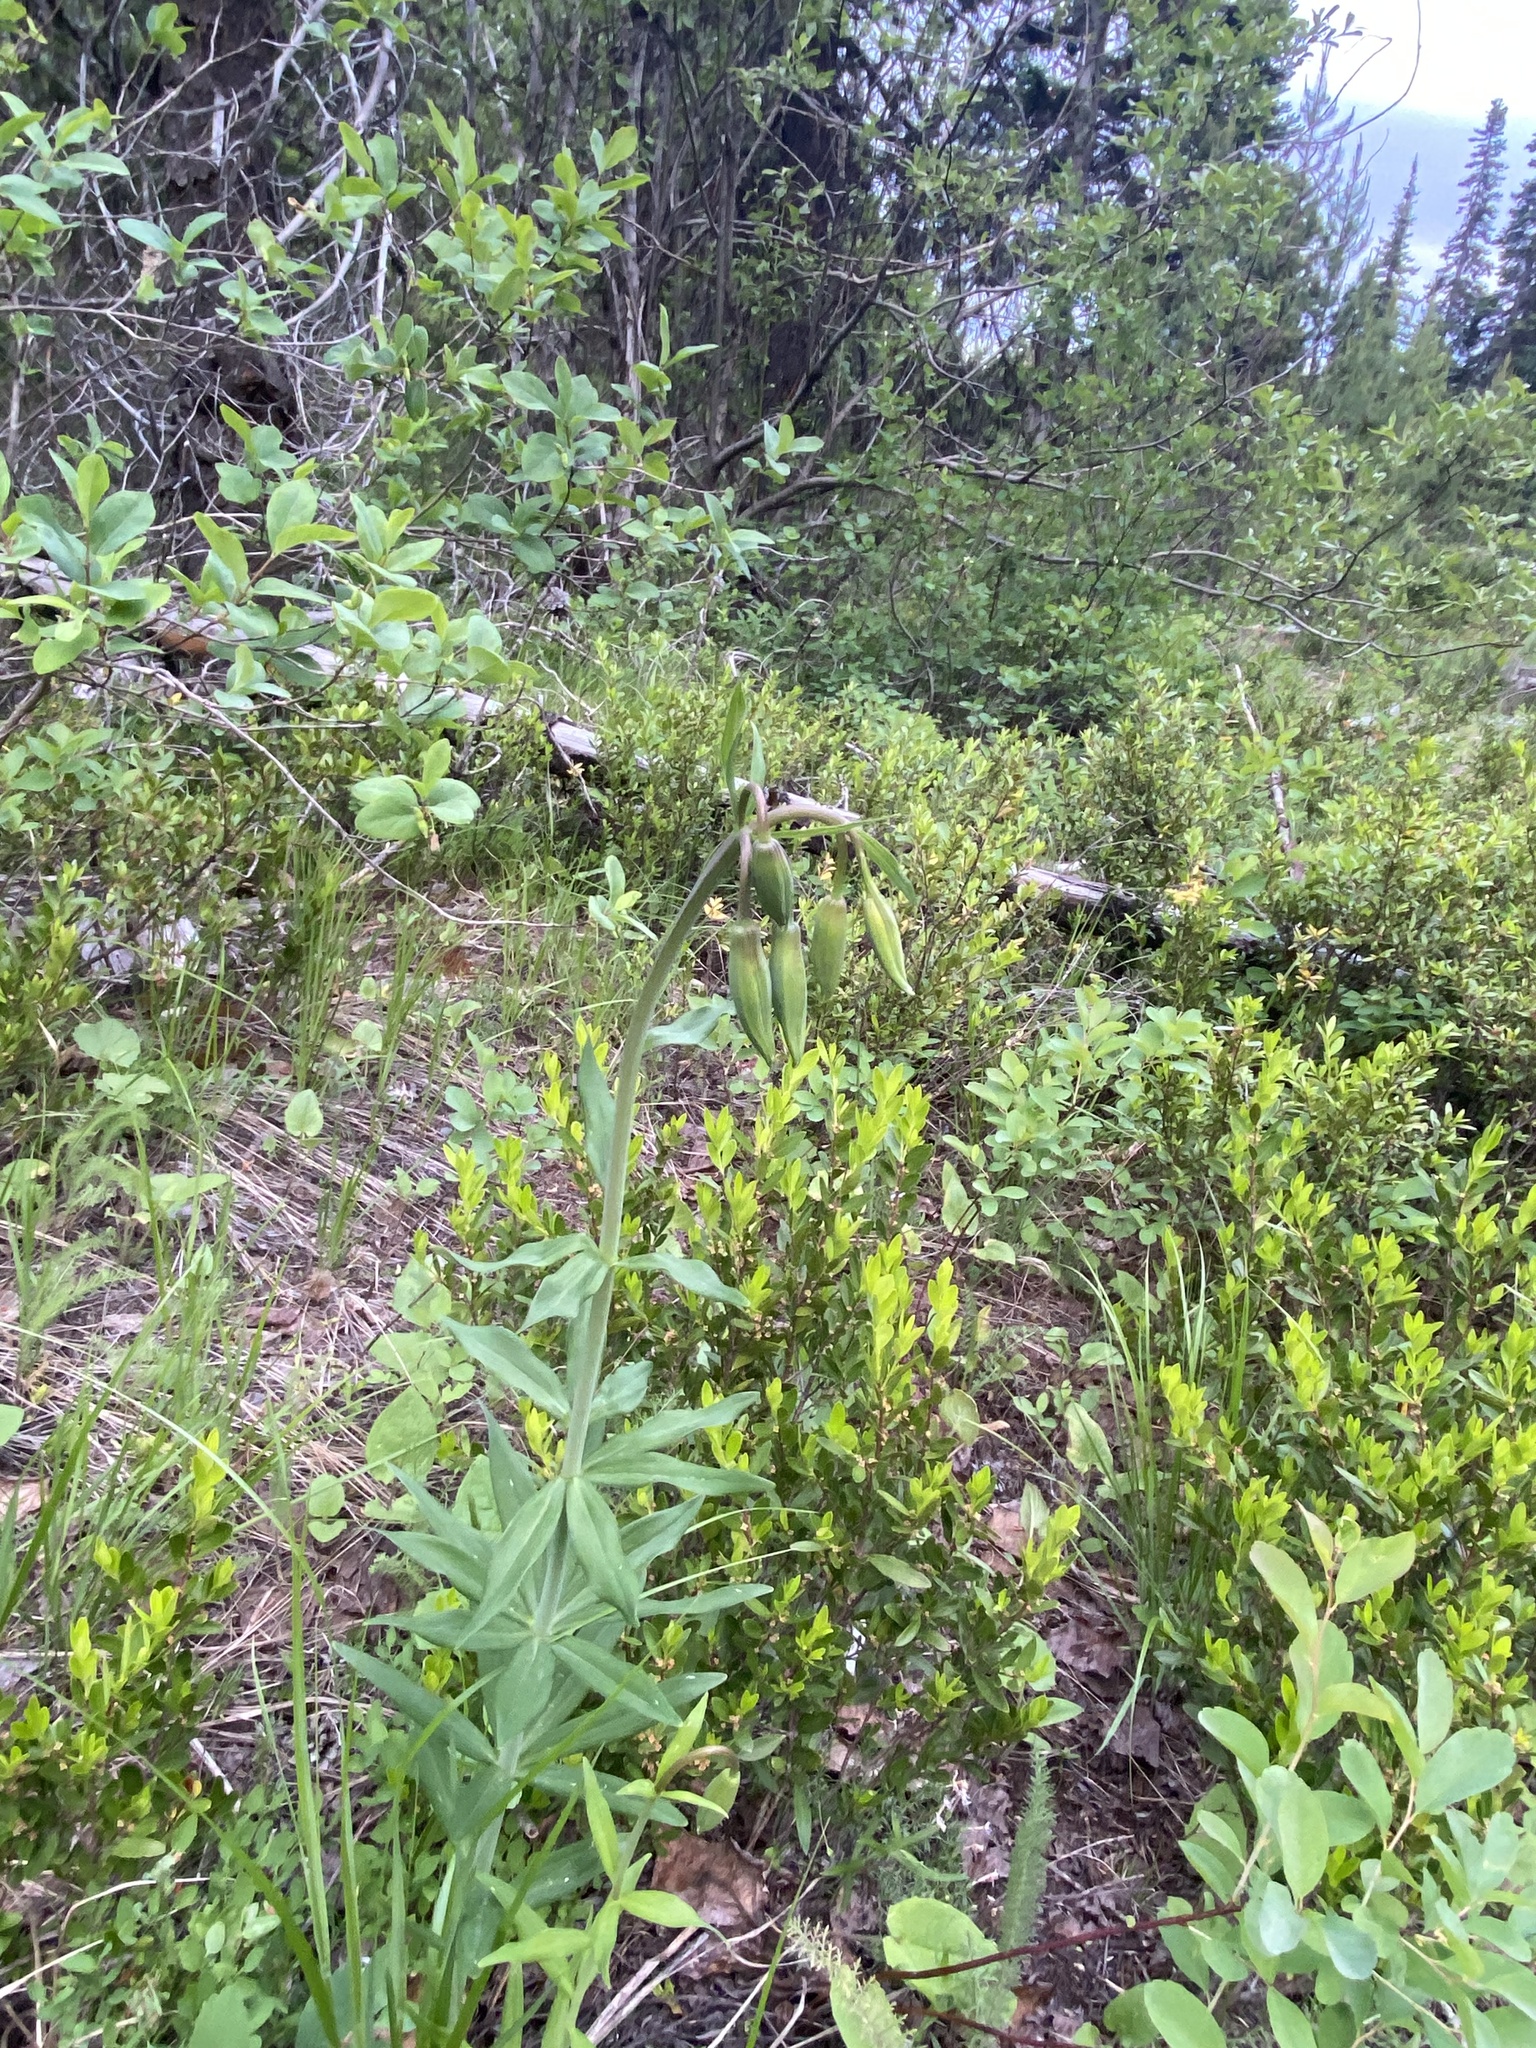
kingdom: Plantae
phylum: Tracheophyta
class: Liliopsida
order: Liliales
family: Liliaceae
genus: Lilium
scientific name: Lilium columbianum
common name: Columbia lily
